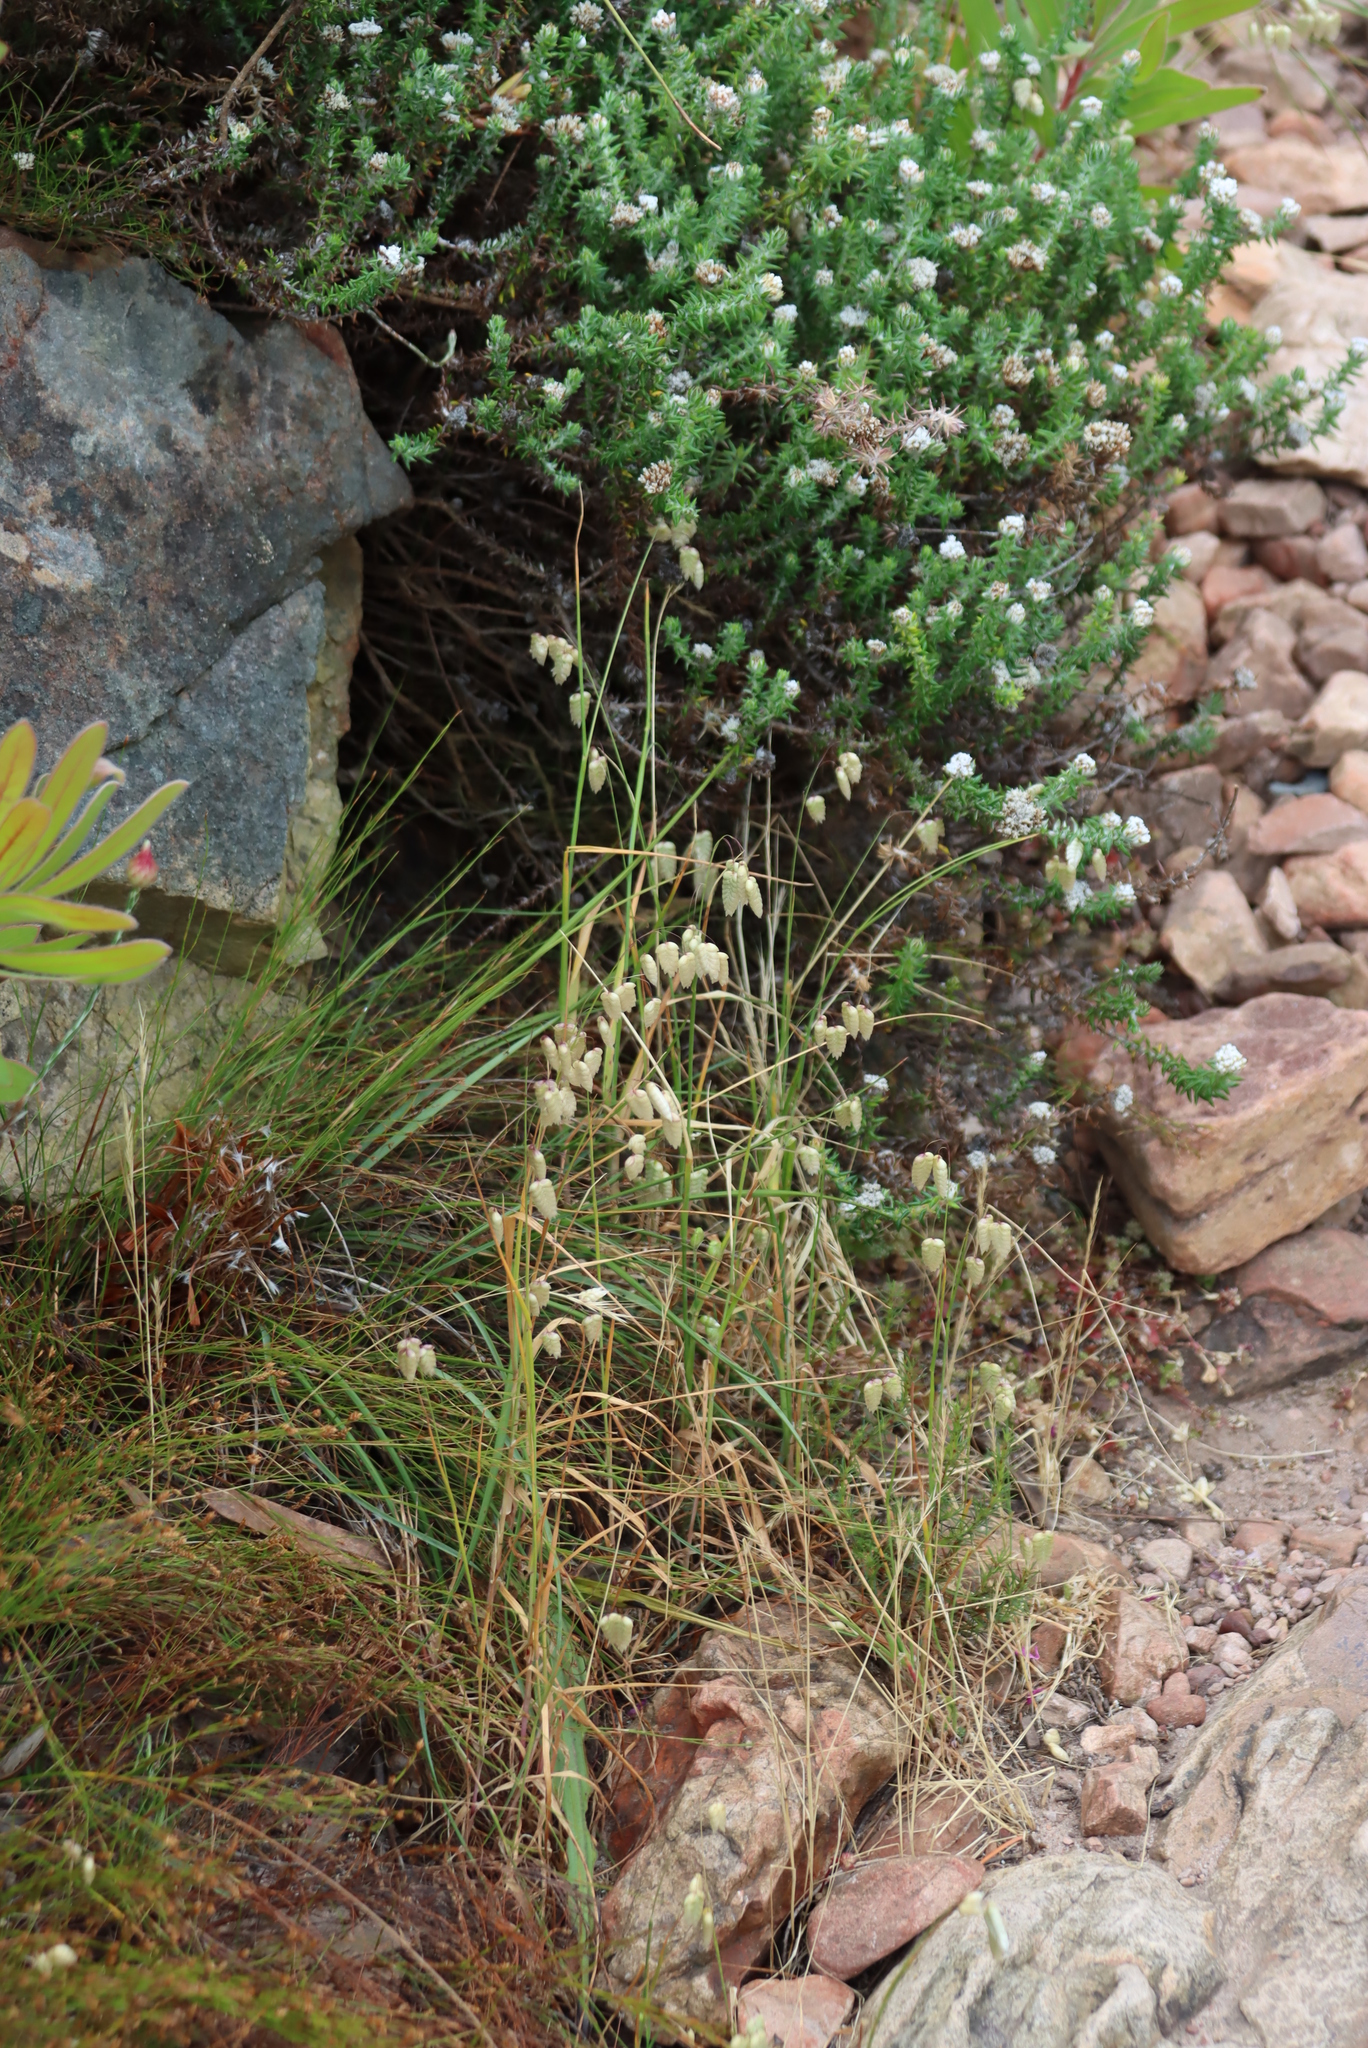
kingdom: Plantae
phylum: Tracheophyta
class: Liliopsida
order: Poales
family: Poaceae
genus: Briza
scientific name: Briza maxima
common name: Big quakinggrass
